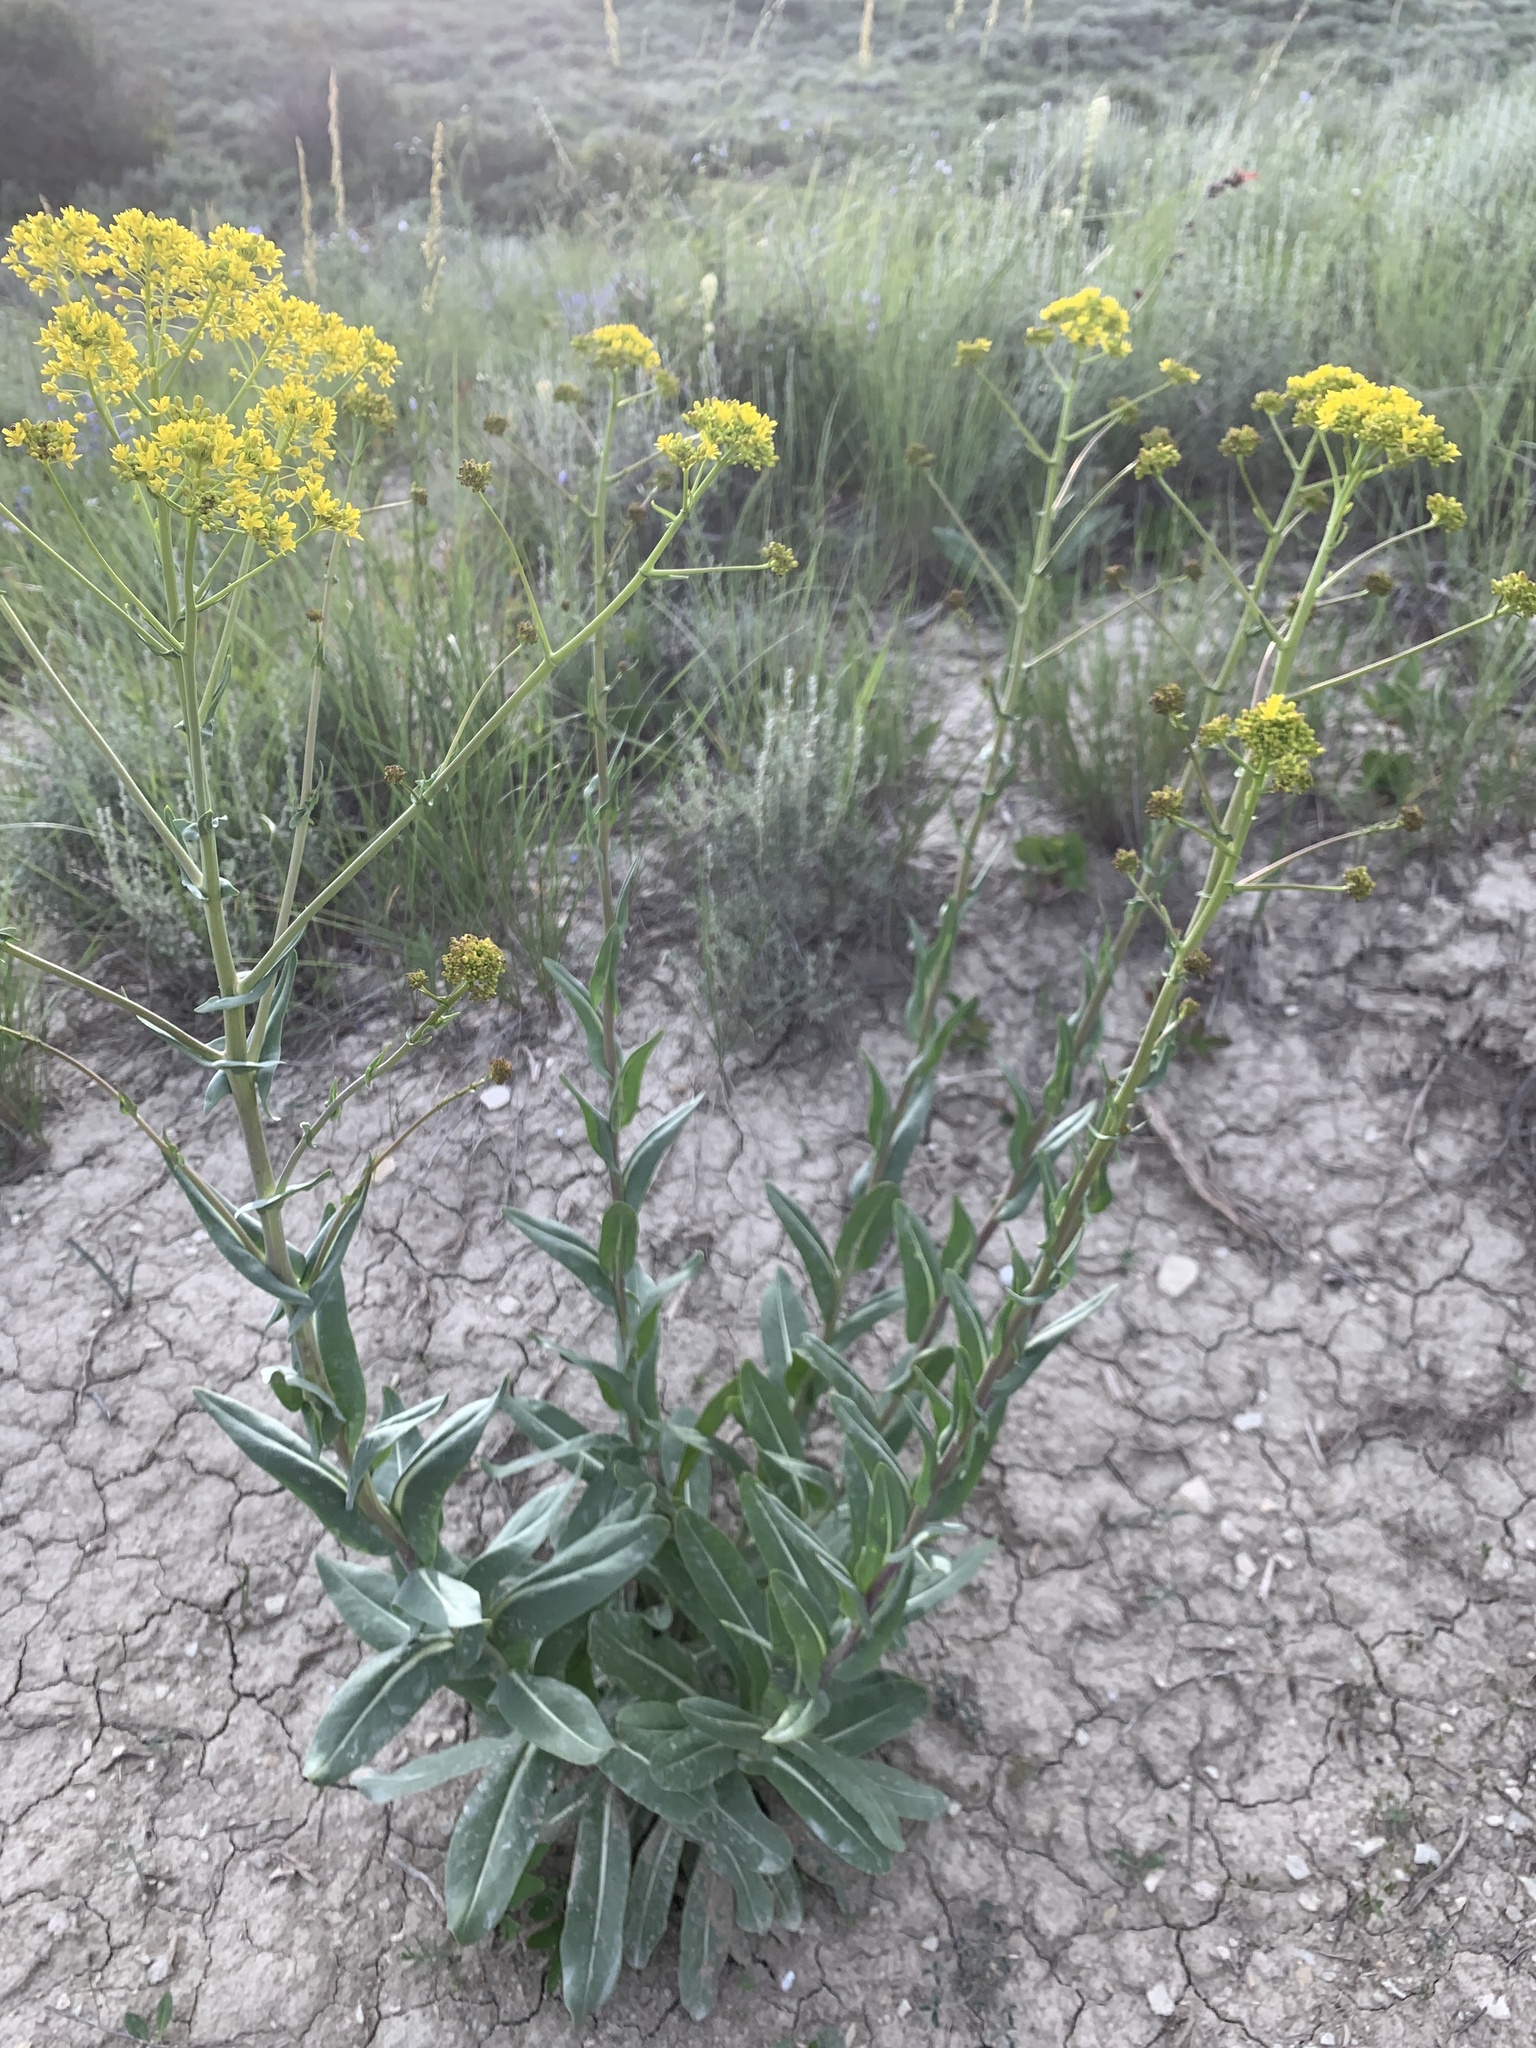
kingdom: Plantae
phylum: Tracheophyta
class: Magnoliopsida
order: Brassicales
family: Brassicaceae
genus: Isatis
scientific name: Isatis tinctoria
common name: Woad
